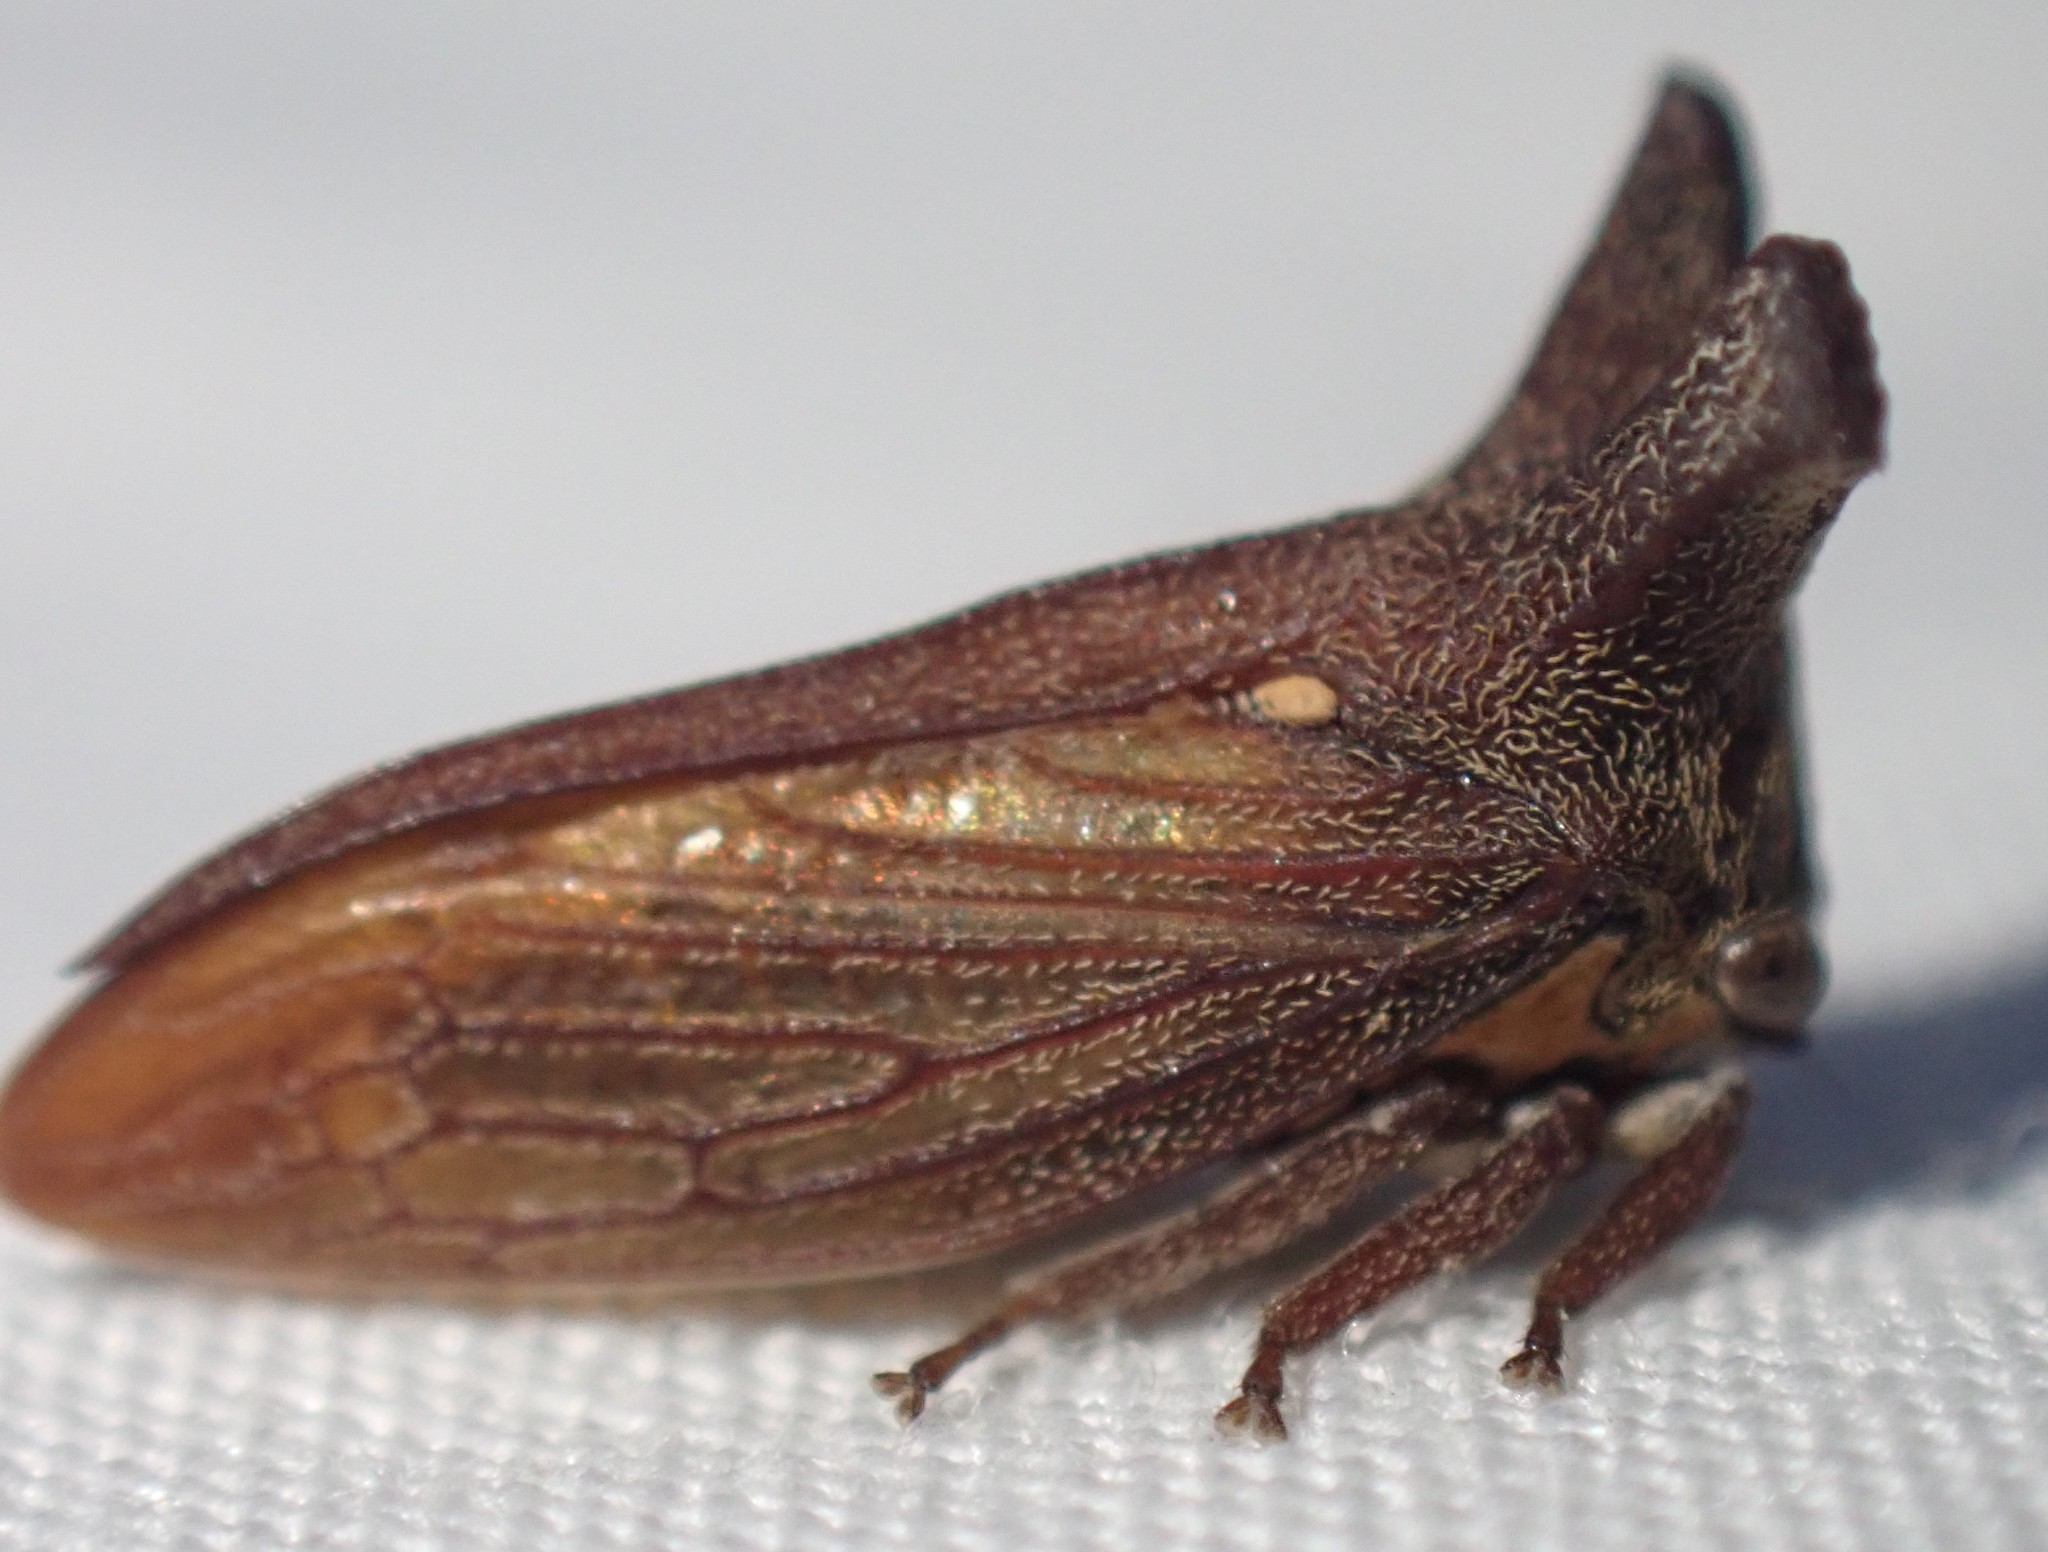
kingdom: Animalia
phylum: Arthropoda
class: Insecta
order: Hemiptera
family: Membracidae
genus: Ceraon
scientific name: Ceraon tasmaniae
